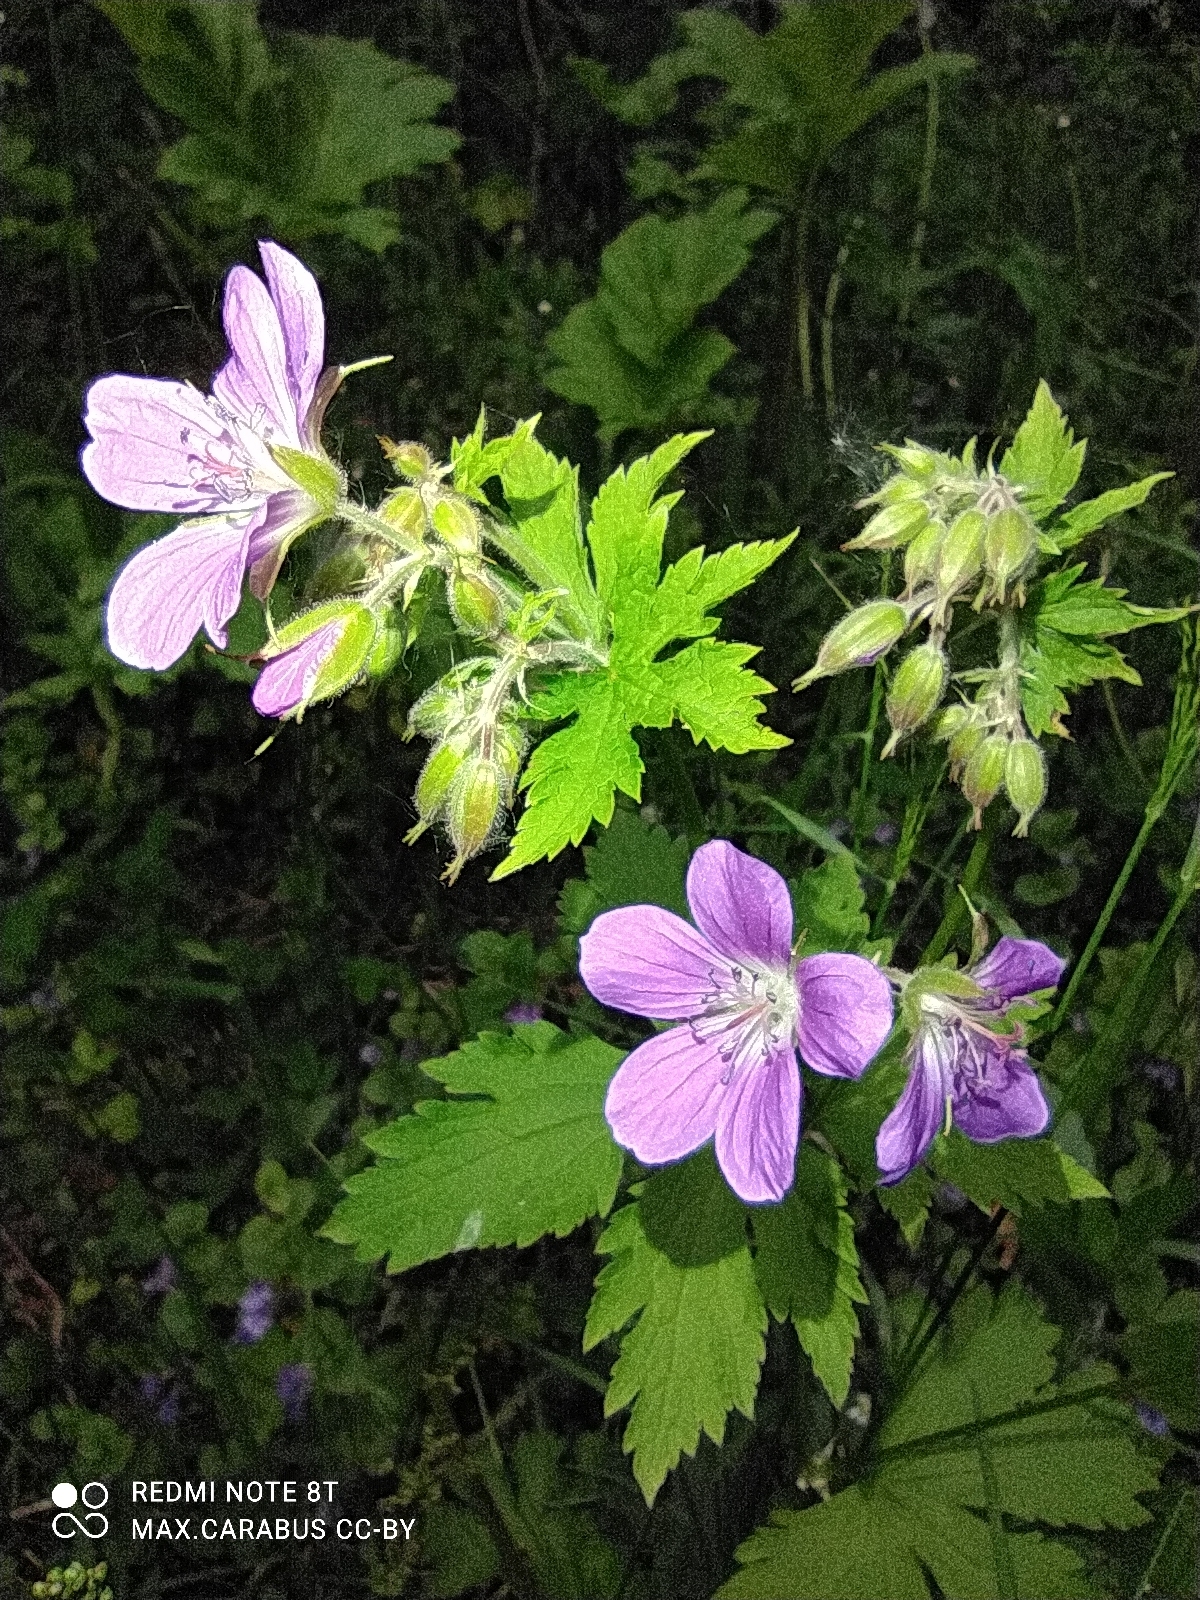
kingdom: Plantae
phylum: Tracheophyta
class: Magnoliopsida
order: Geraniales
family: Geraniaceae
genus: Geranium
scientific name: Geranium sylvaticum
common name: Wood crane's-bill
